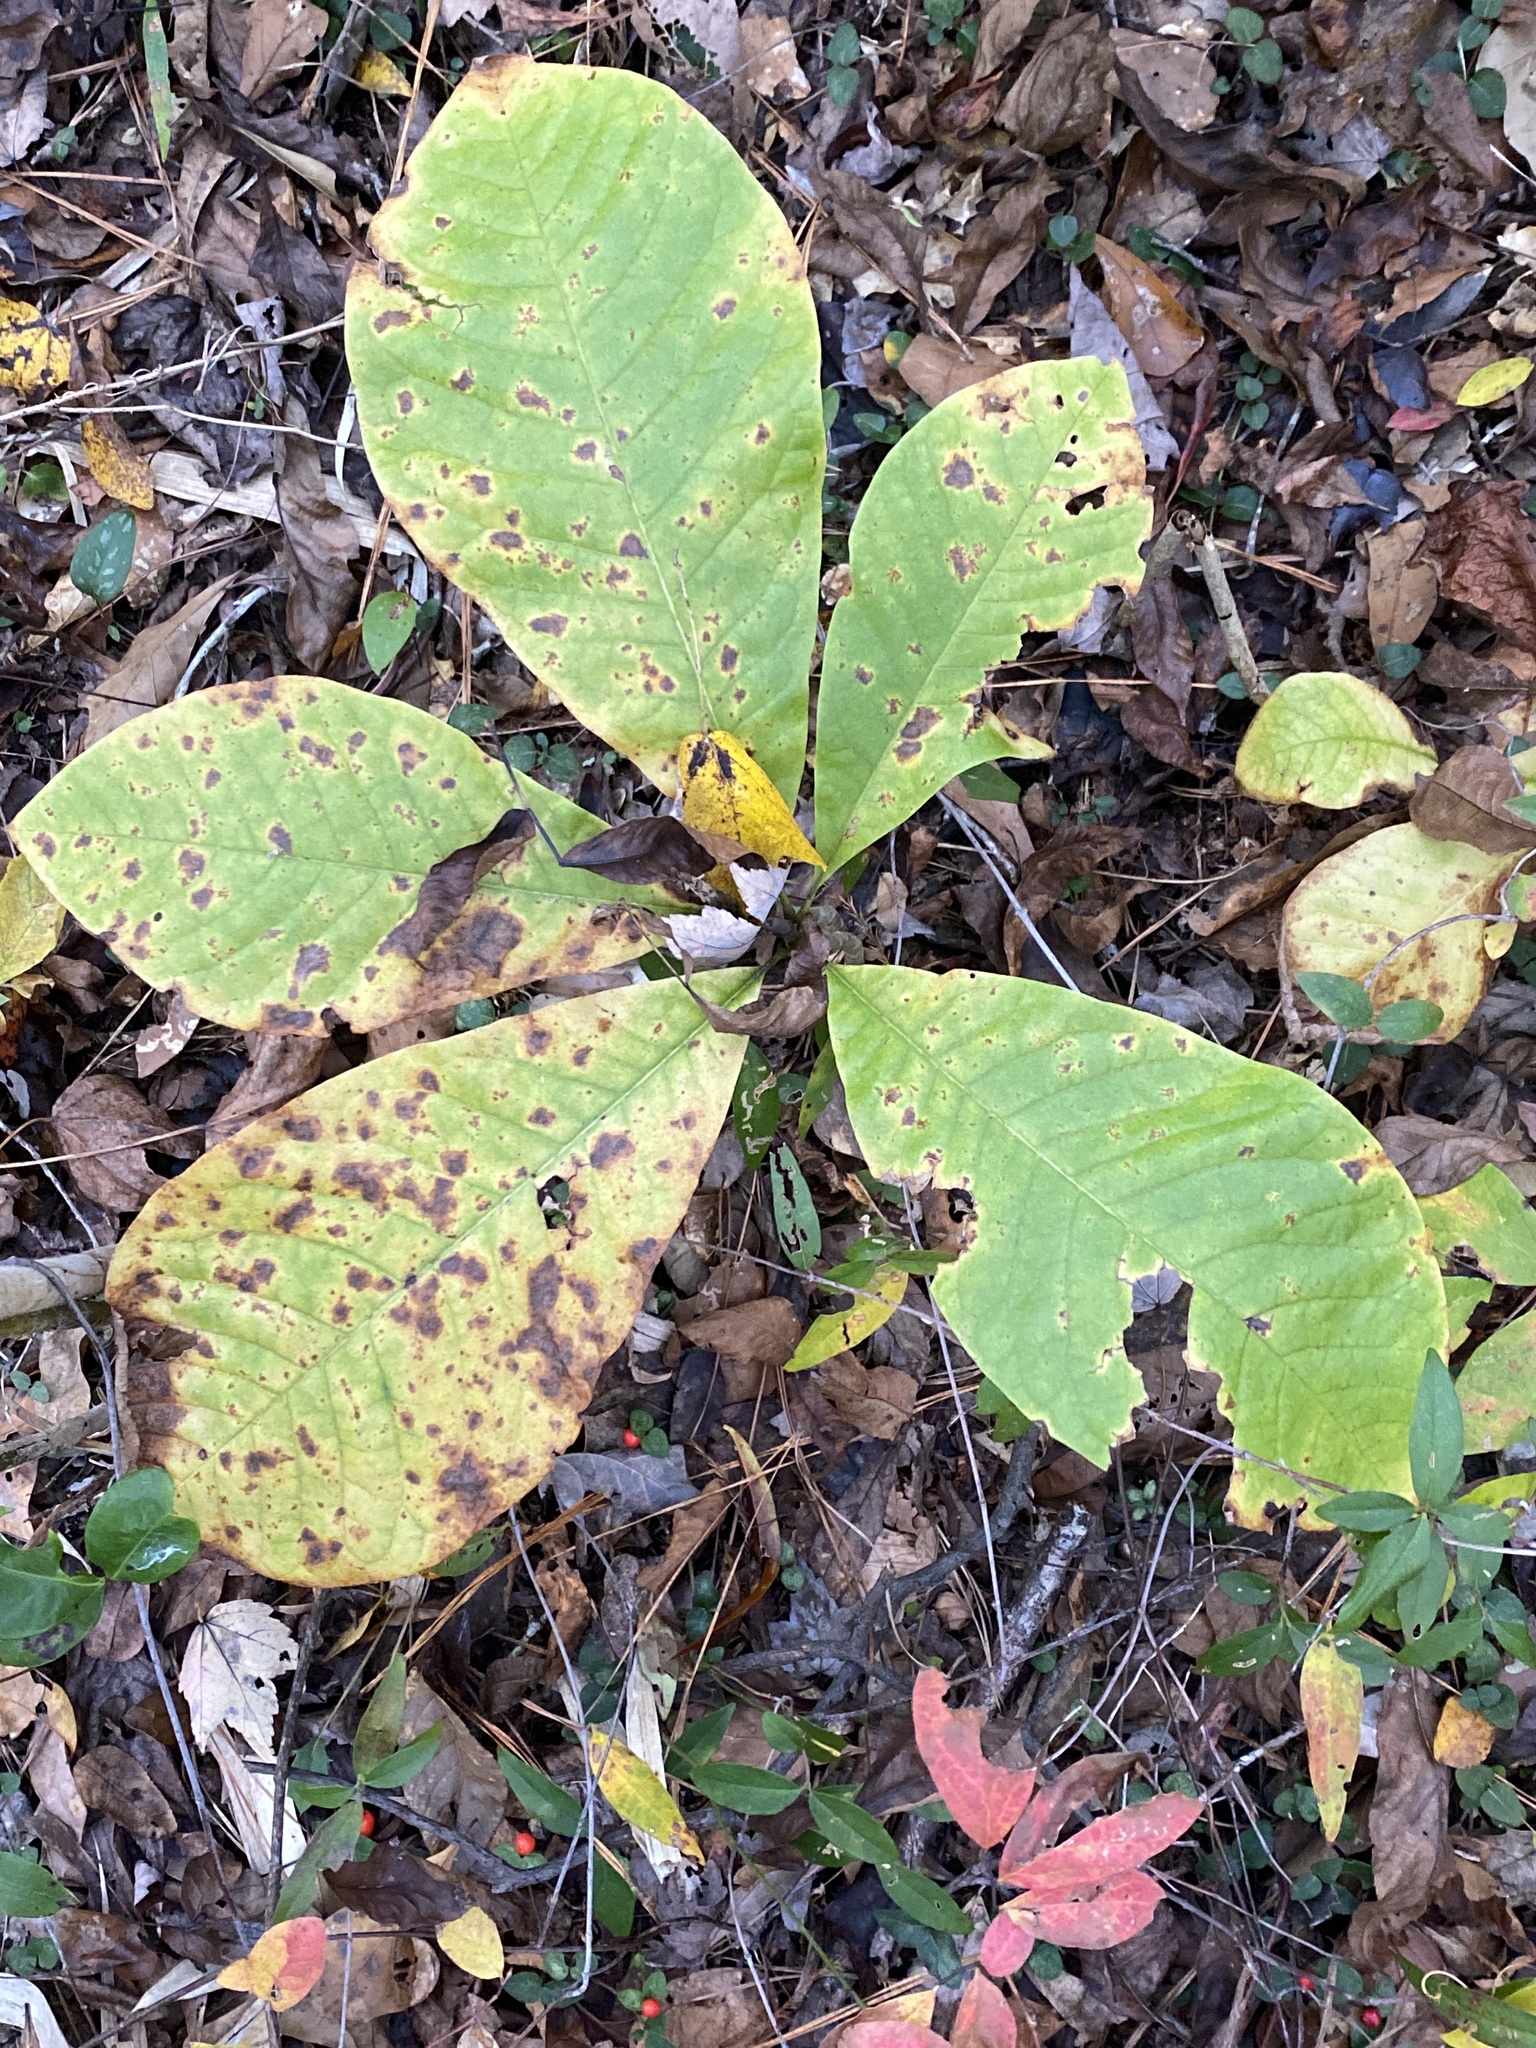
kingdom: Plantae
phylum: Tracheophyta
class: Magnoliopsida
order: Magnoliales
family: Magnoliaceae
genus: Magnolia
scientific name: Magnolia tripetala
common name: Umbrella magnolia
